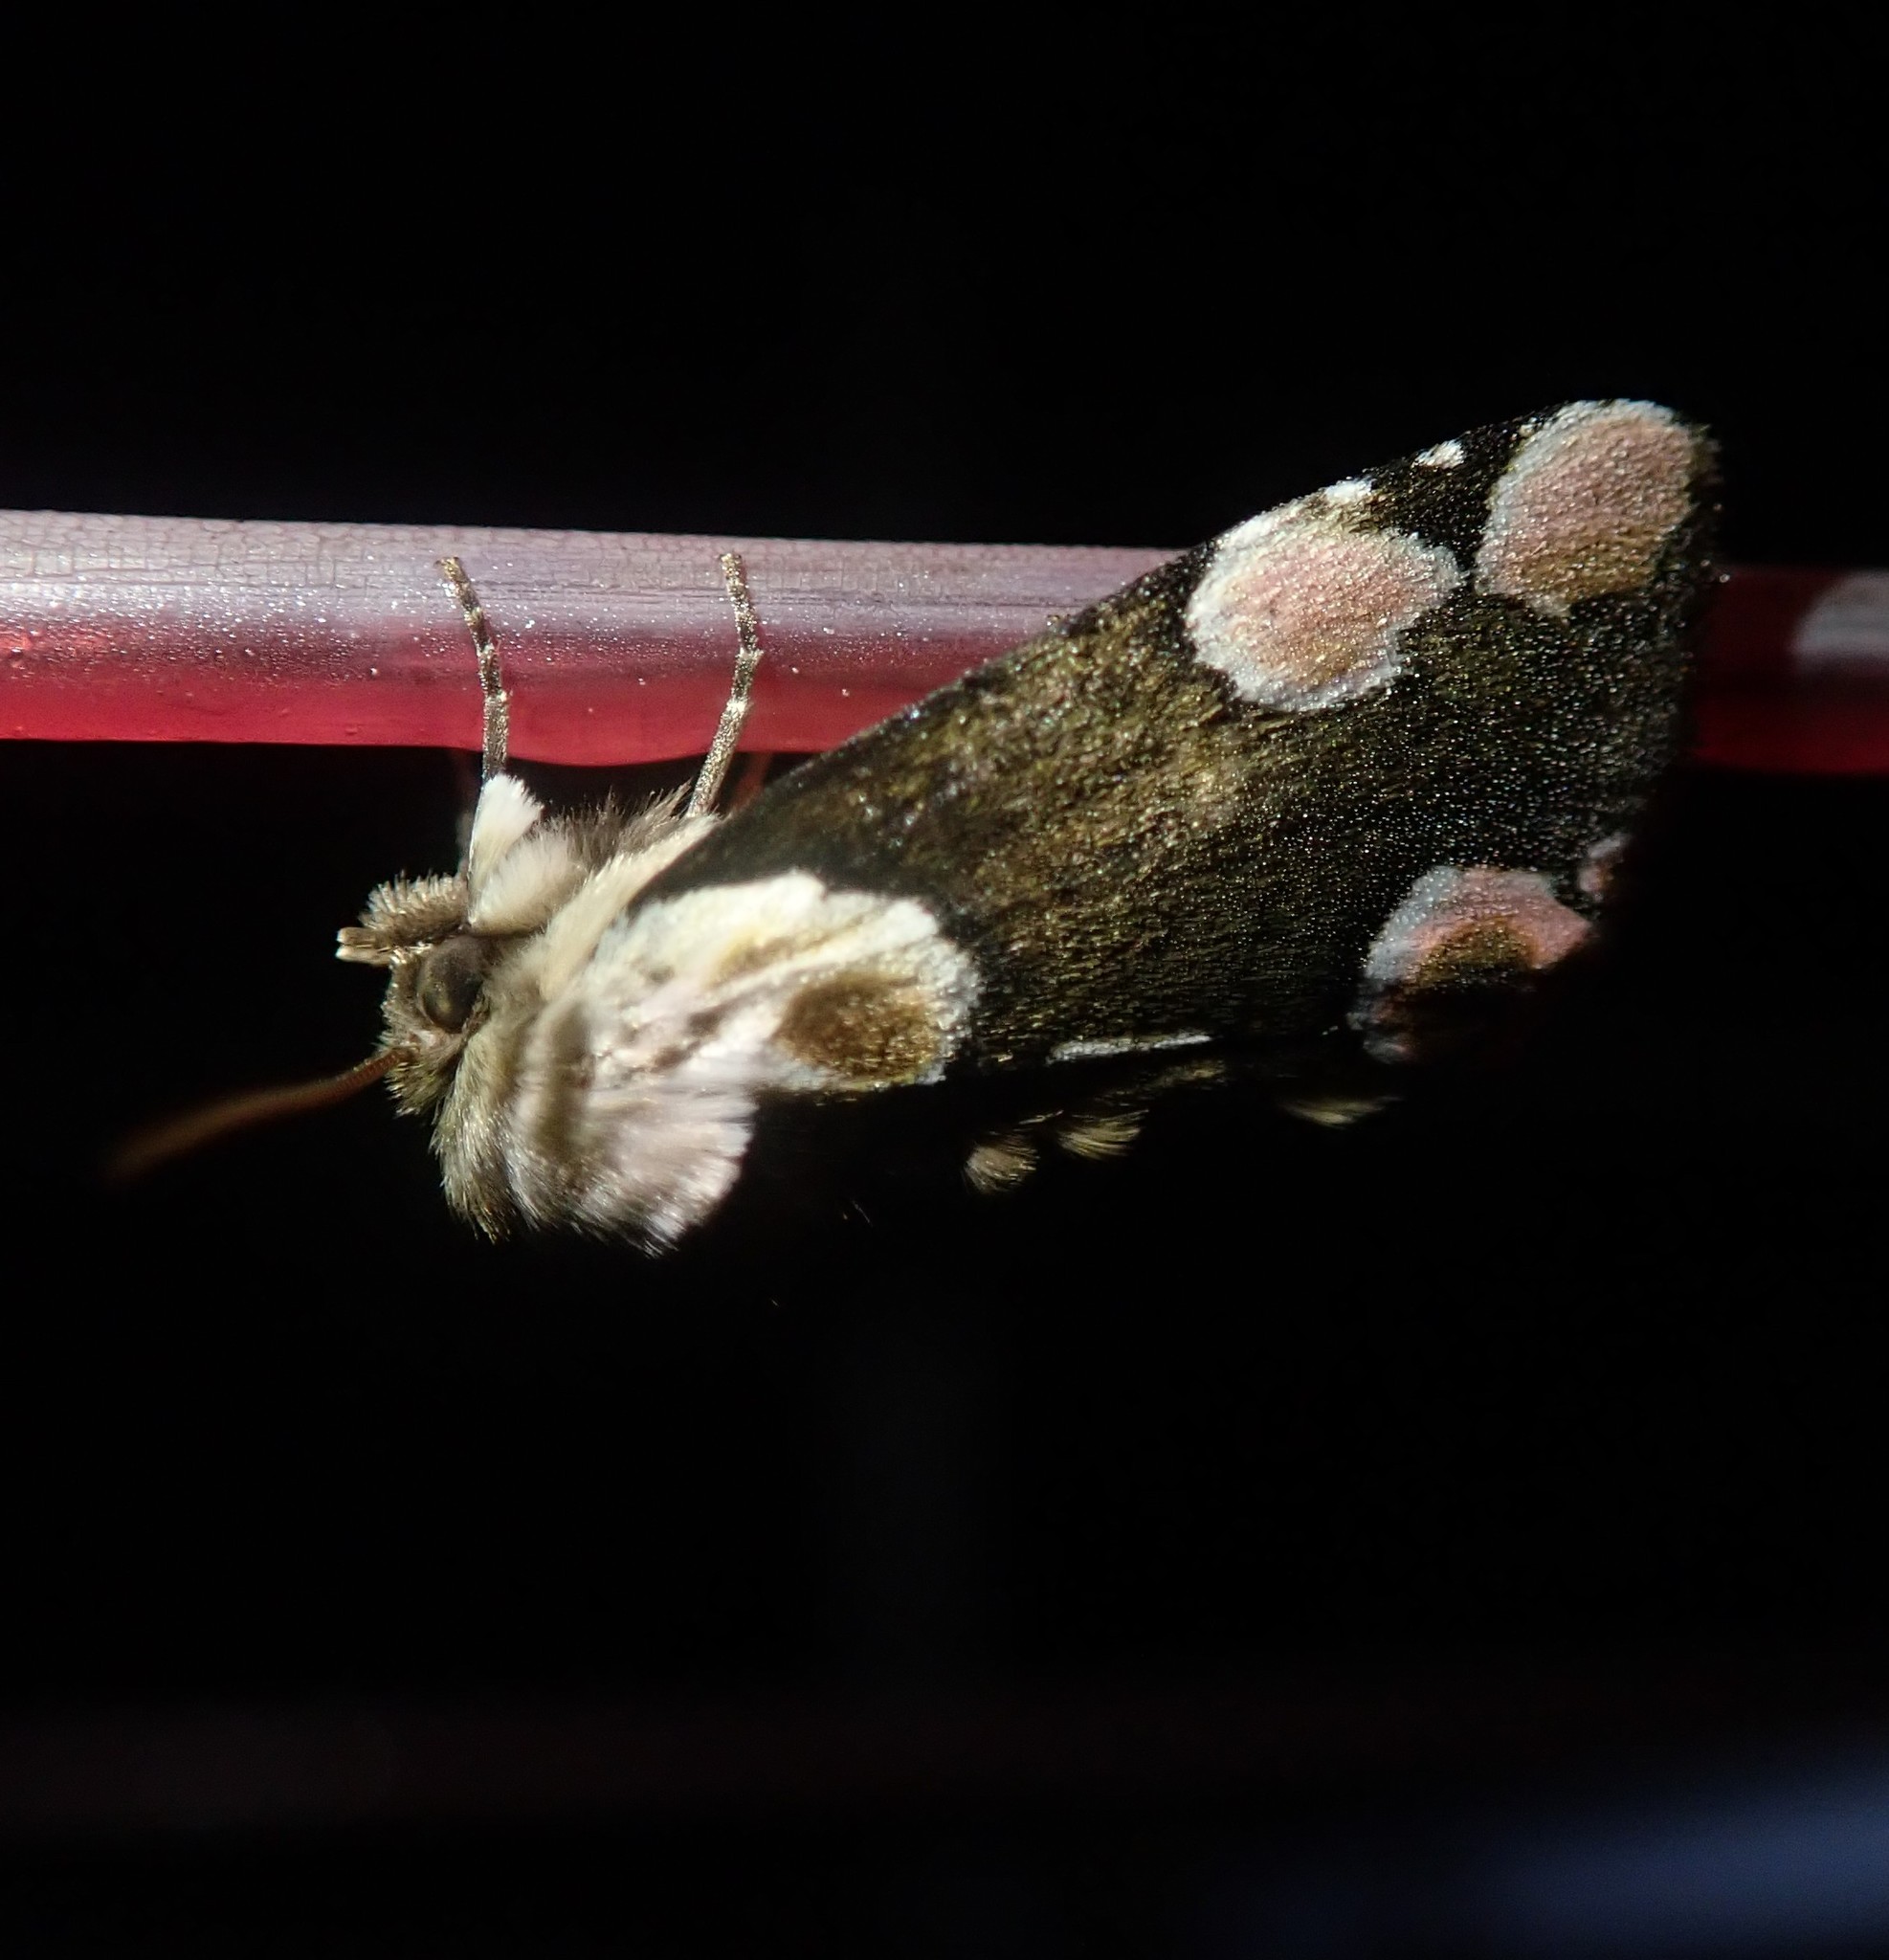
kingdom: Animalia
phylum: Arthropoda
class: Insecta
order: Lepidoptera
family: Drepanidae
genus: Thyatira
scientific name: Thyatira batis
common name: Peach blossom
